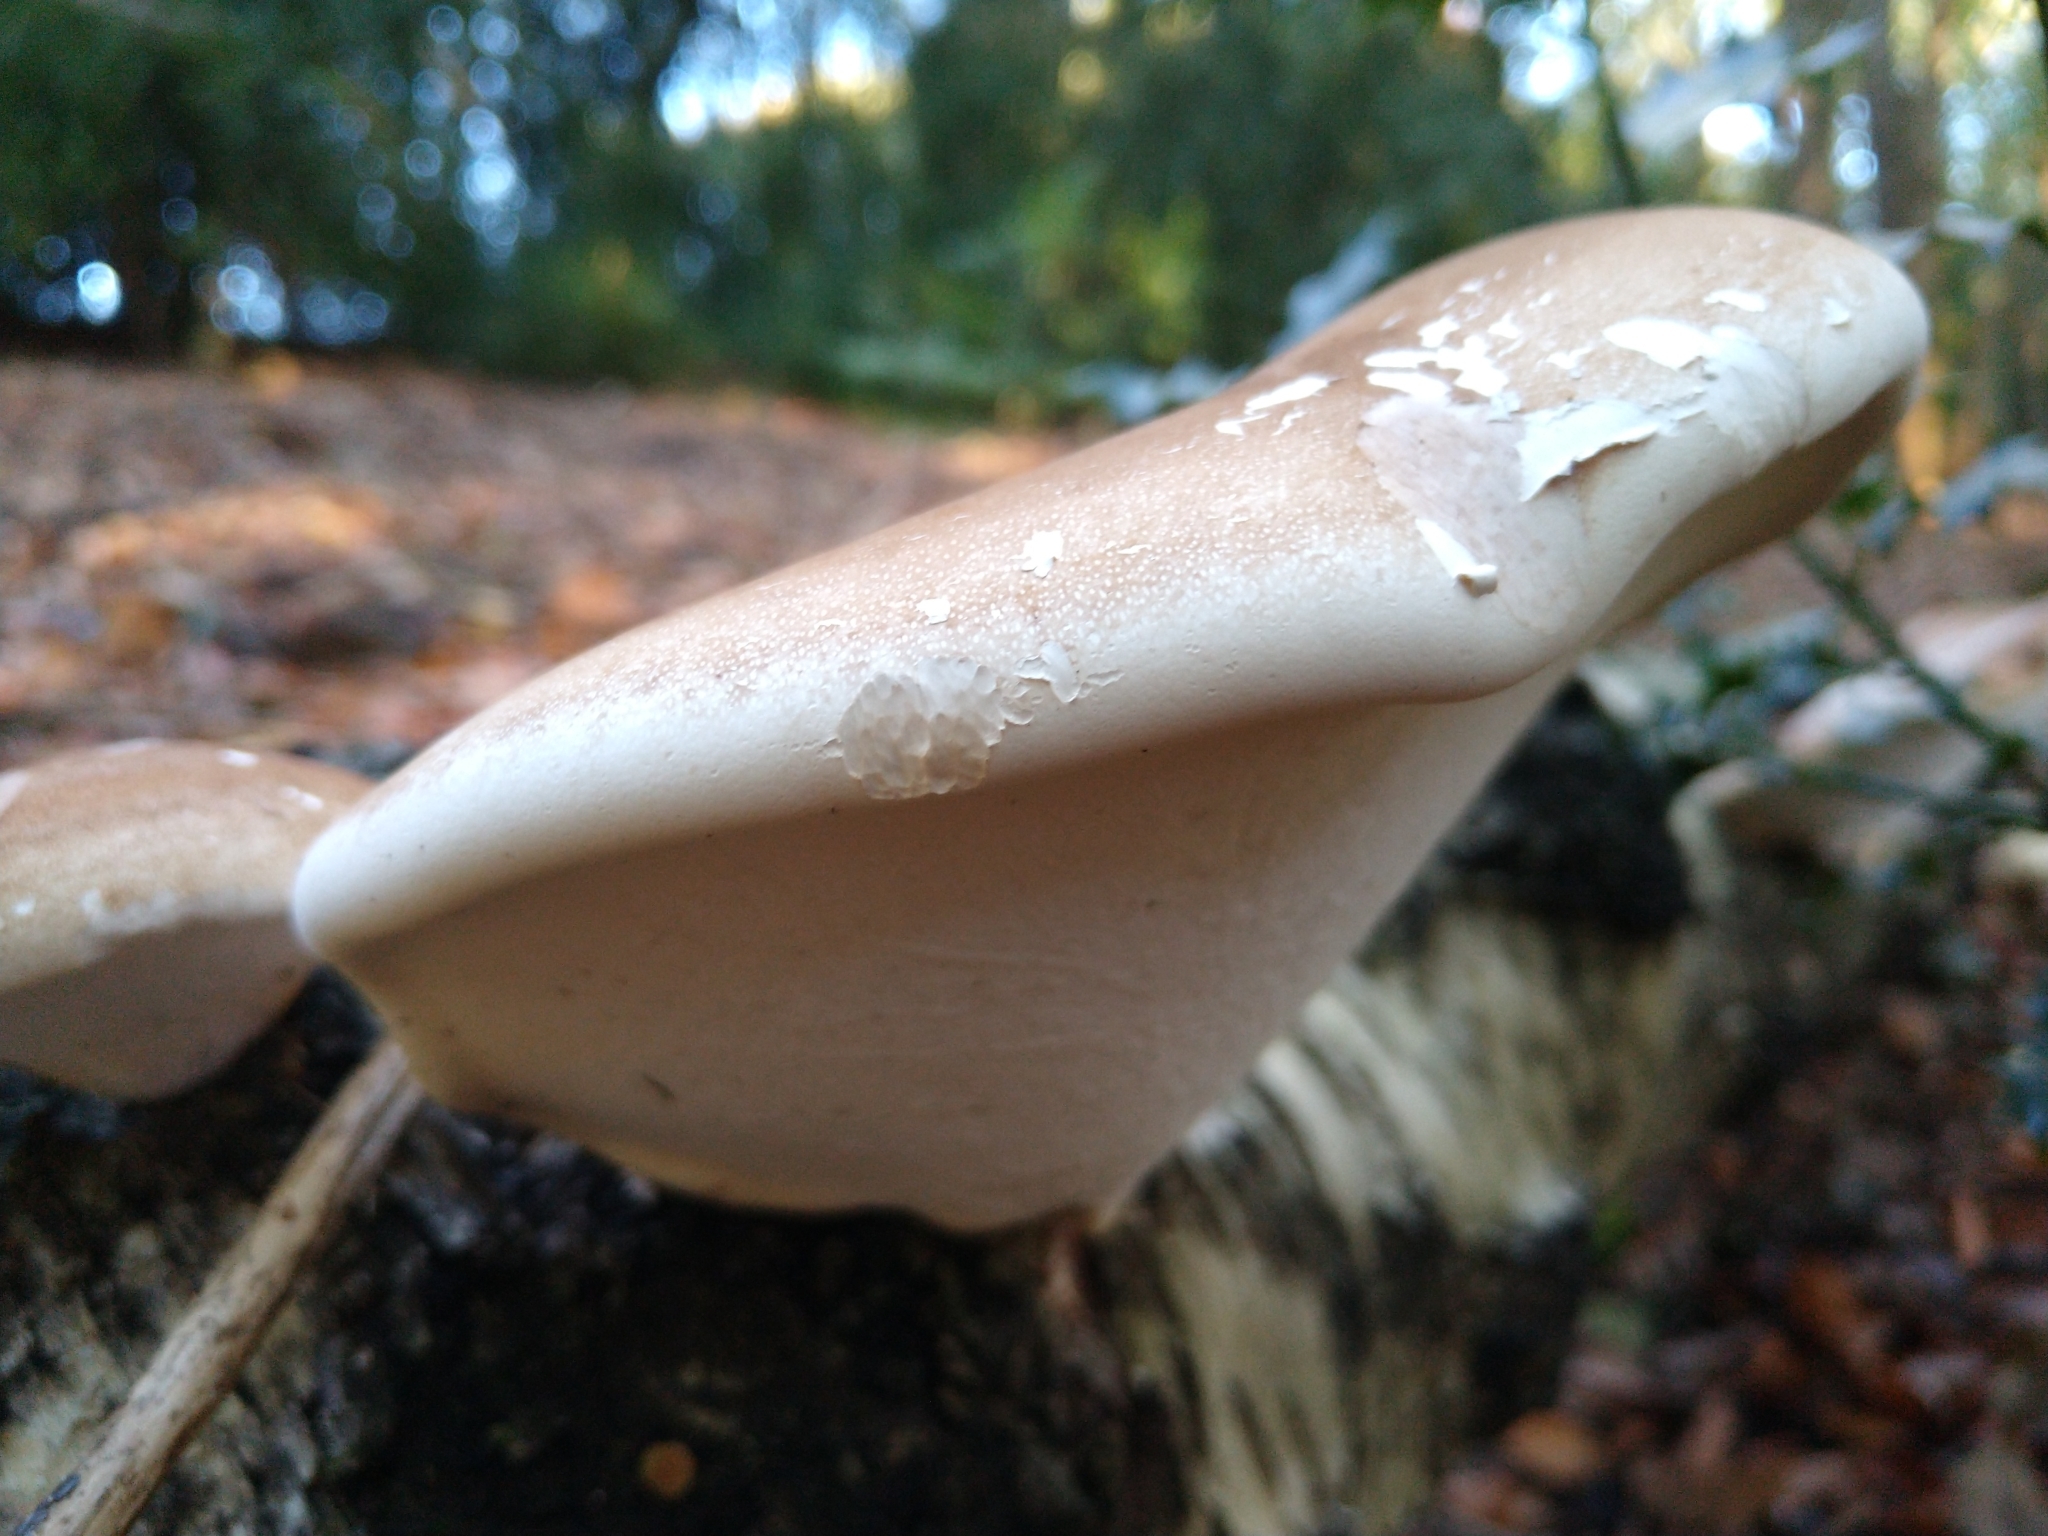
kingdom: Fungi
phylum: Basidiomycota
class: Agaricomycetes
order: Polyporales
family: Fomitopsidaceae
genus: Fomitopsis
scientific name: Fomitopsis betulina
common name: Birch polypore
